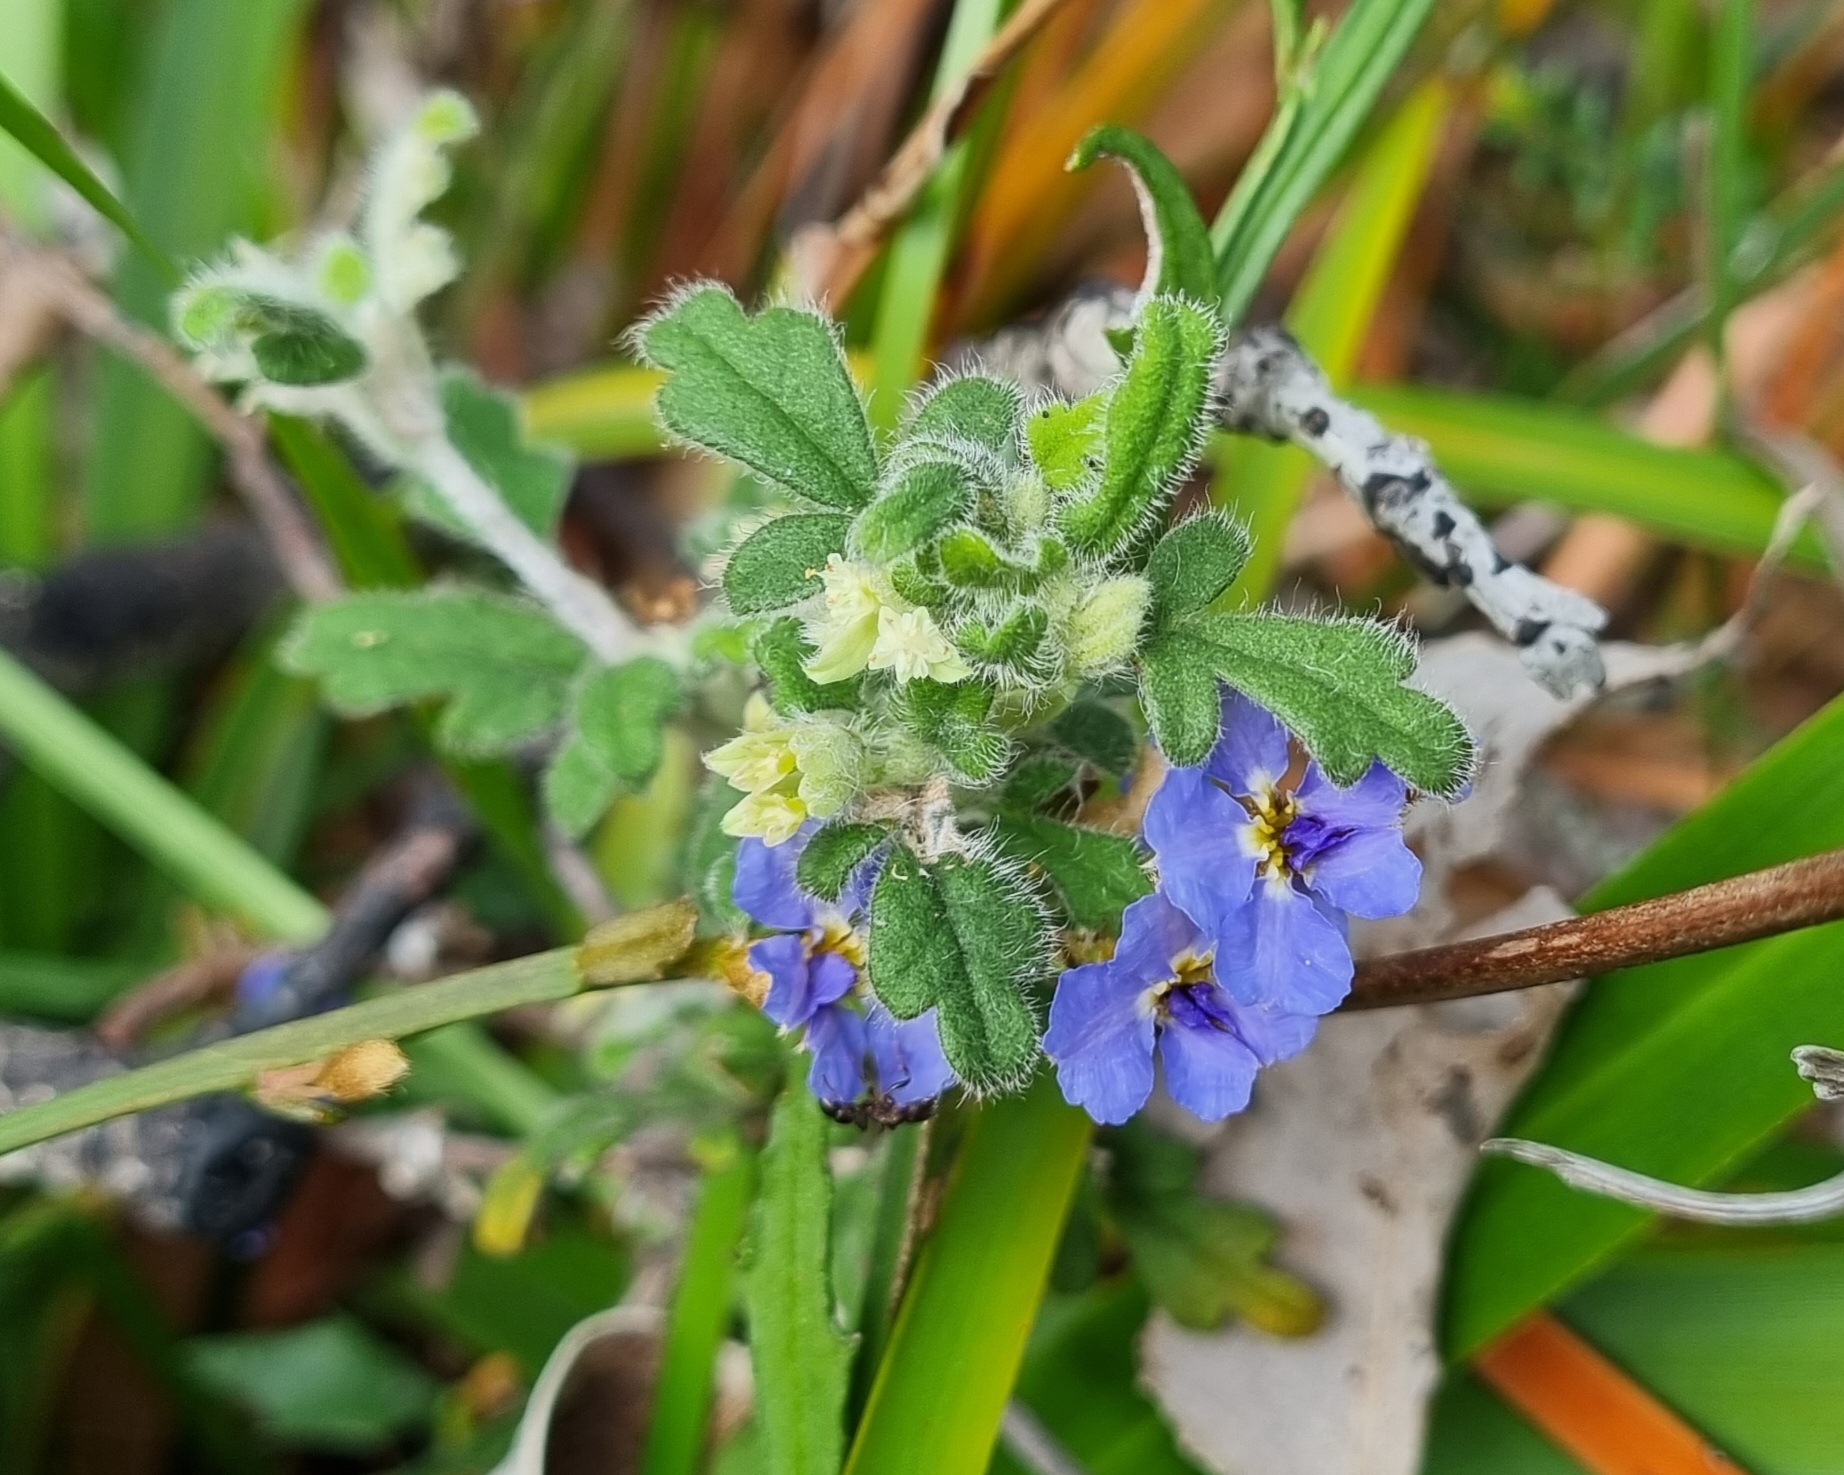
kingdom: Plantae
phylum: Tracheophyta
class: Magnoliopsida
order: Apiales
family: Apiaceae
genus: Xanthosia
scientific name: Xanthosia pilosa
